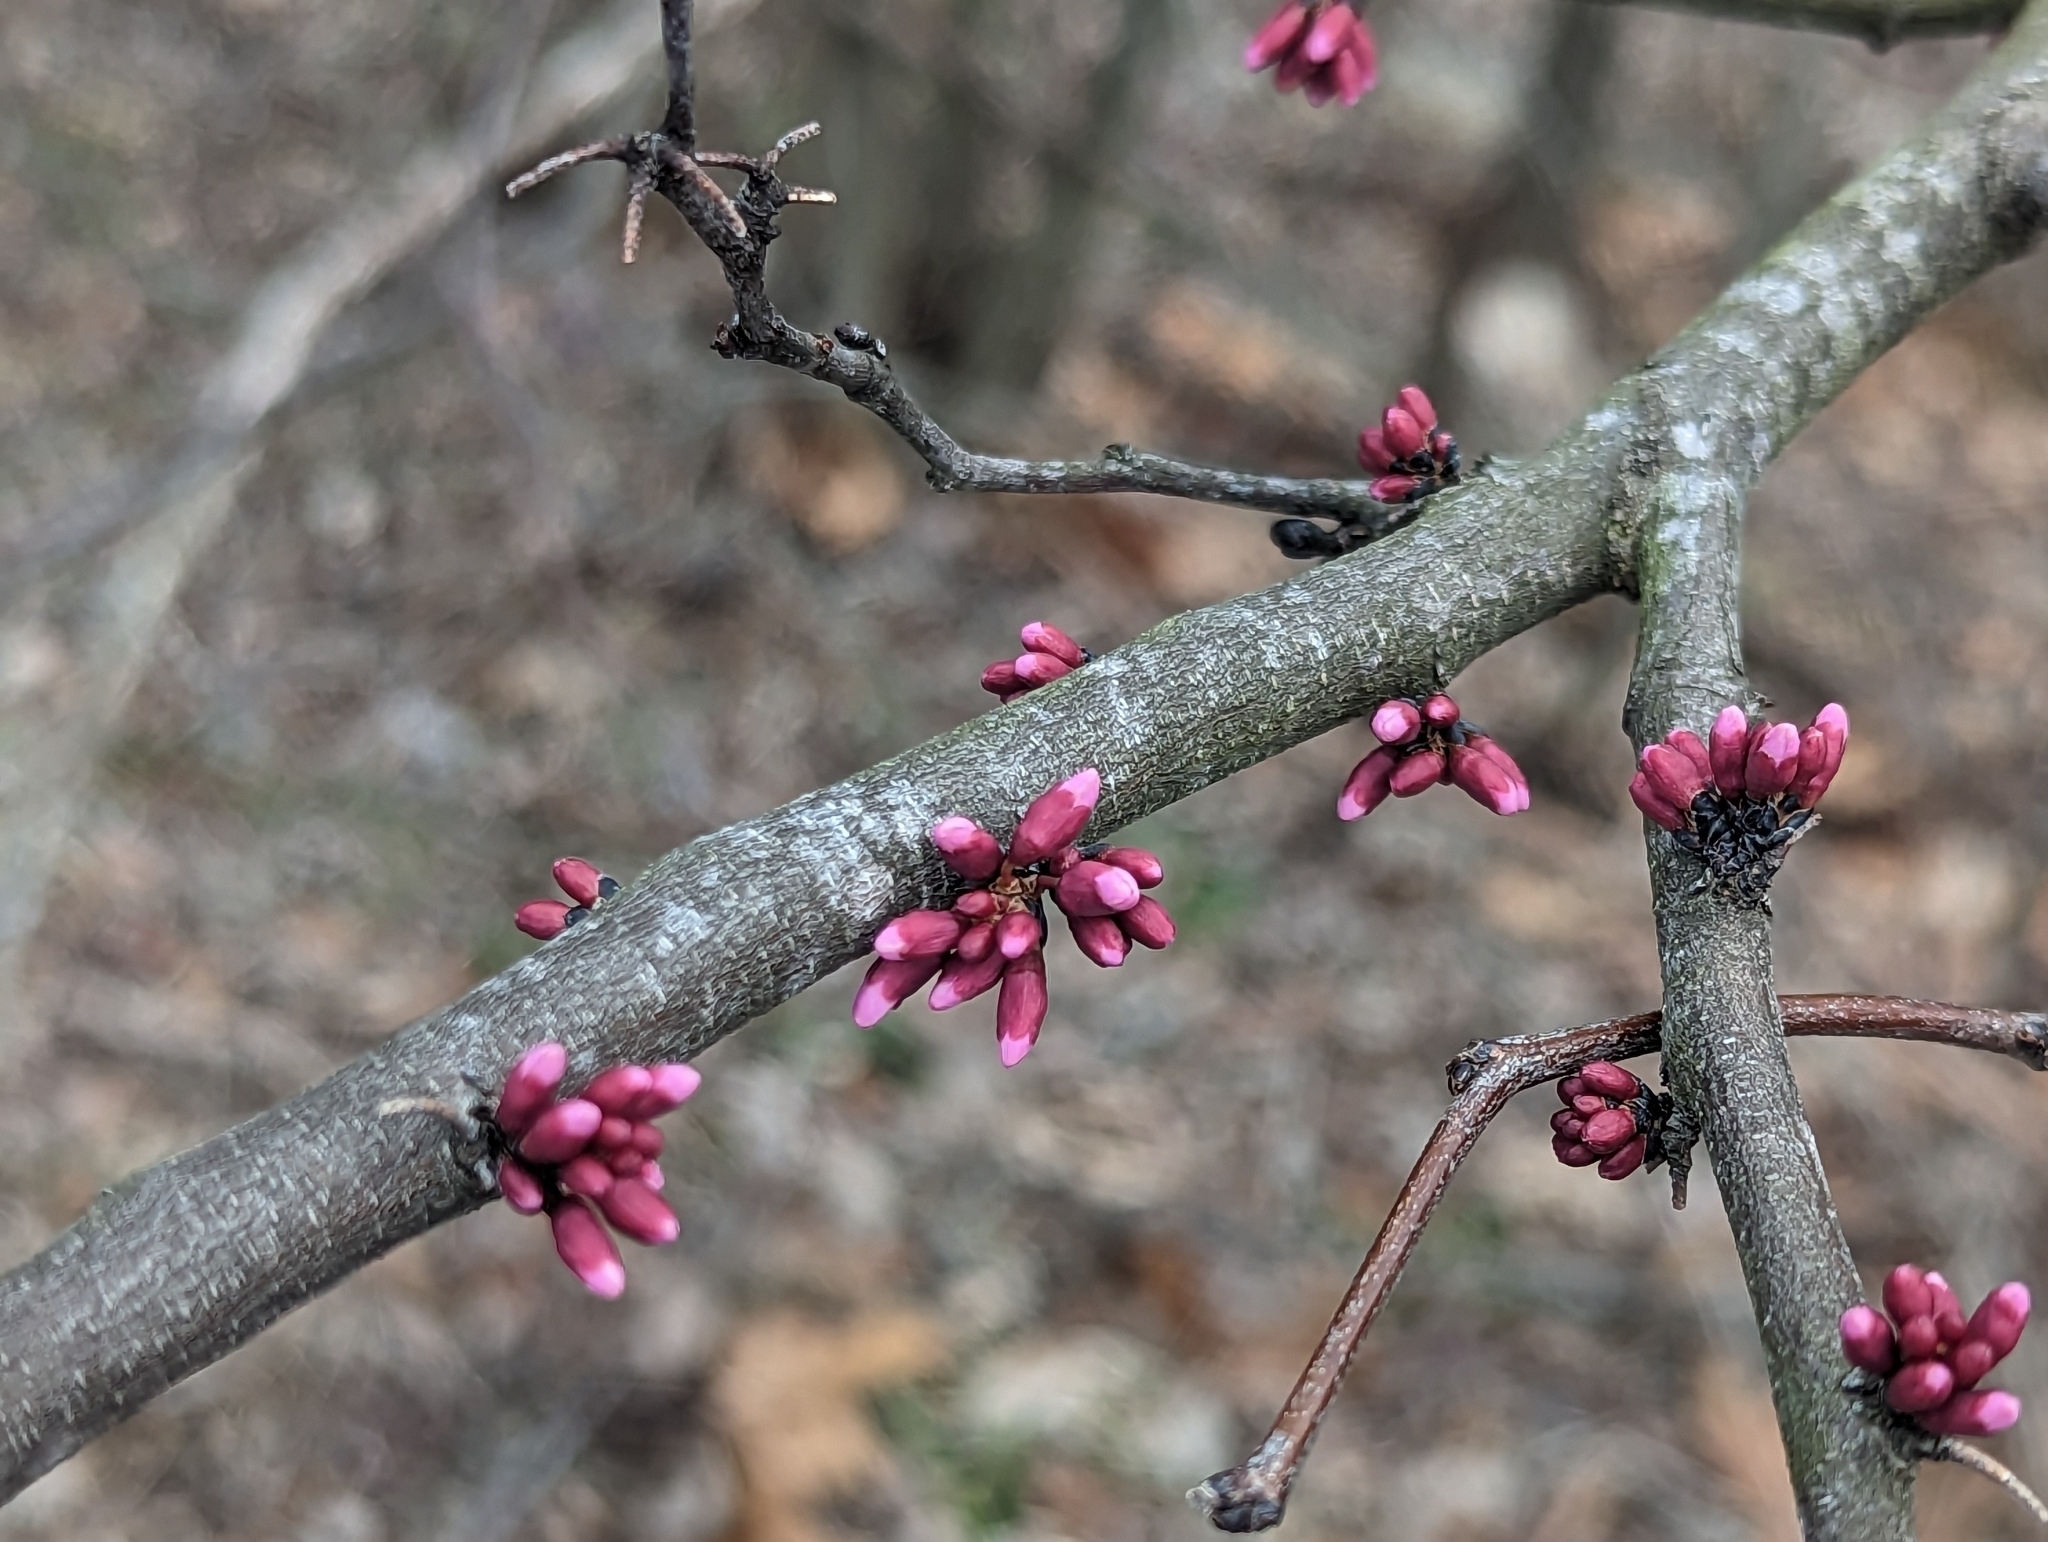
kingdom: Plantae
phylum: Tracheophyta
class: Magnoliopsida
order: Fabales
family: Fabaceae
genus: Cercis
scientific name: Cercis canadensis
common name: Eastern redbud
